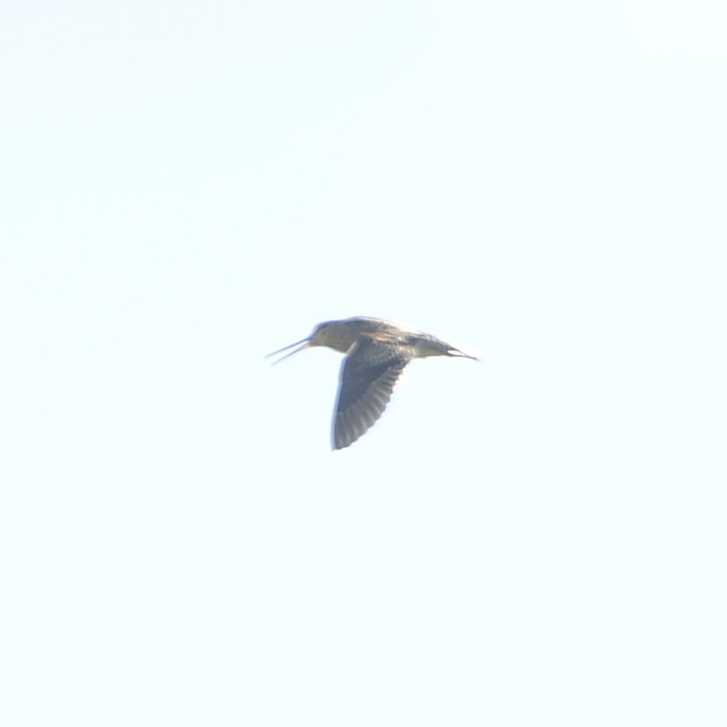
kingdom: Animalia
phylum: Chordata
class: Aves
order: Charadriiformes
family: Scolopacidae
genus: Gallinago
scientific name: Gallinago hardwickii
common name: Latham's snipe
